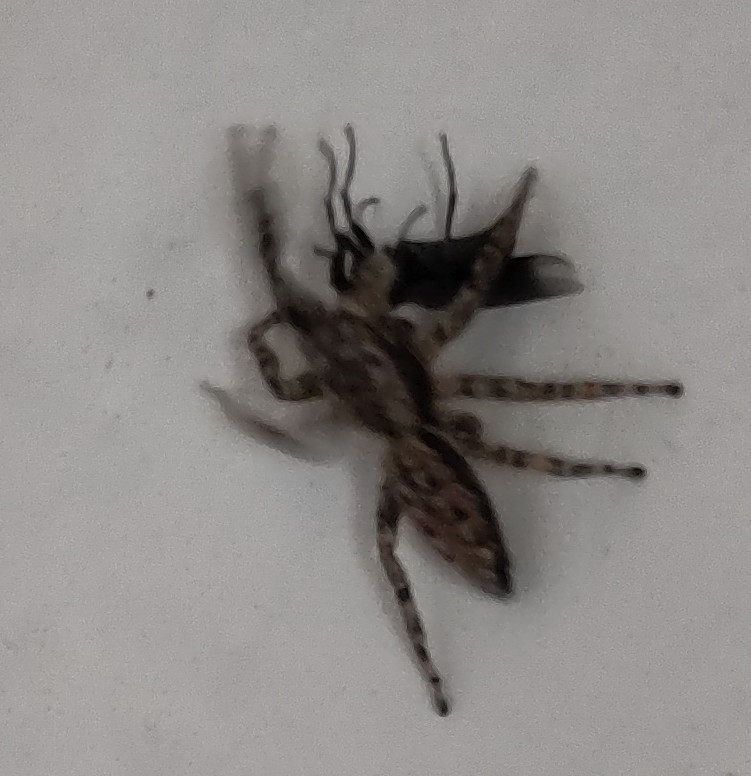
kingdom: Animalia
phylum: Arthropoda
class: Arachnida
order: Araneae
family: Salticidae
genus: Marpissa
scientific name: Marpissa muscosa
